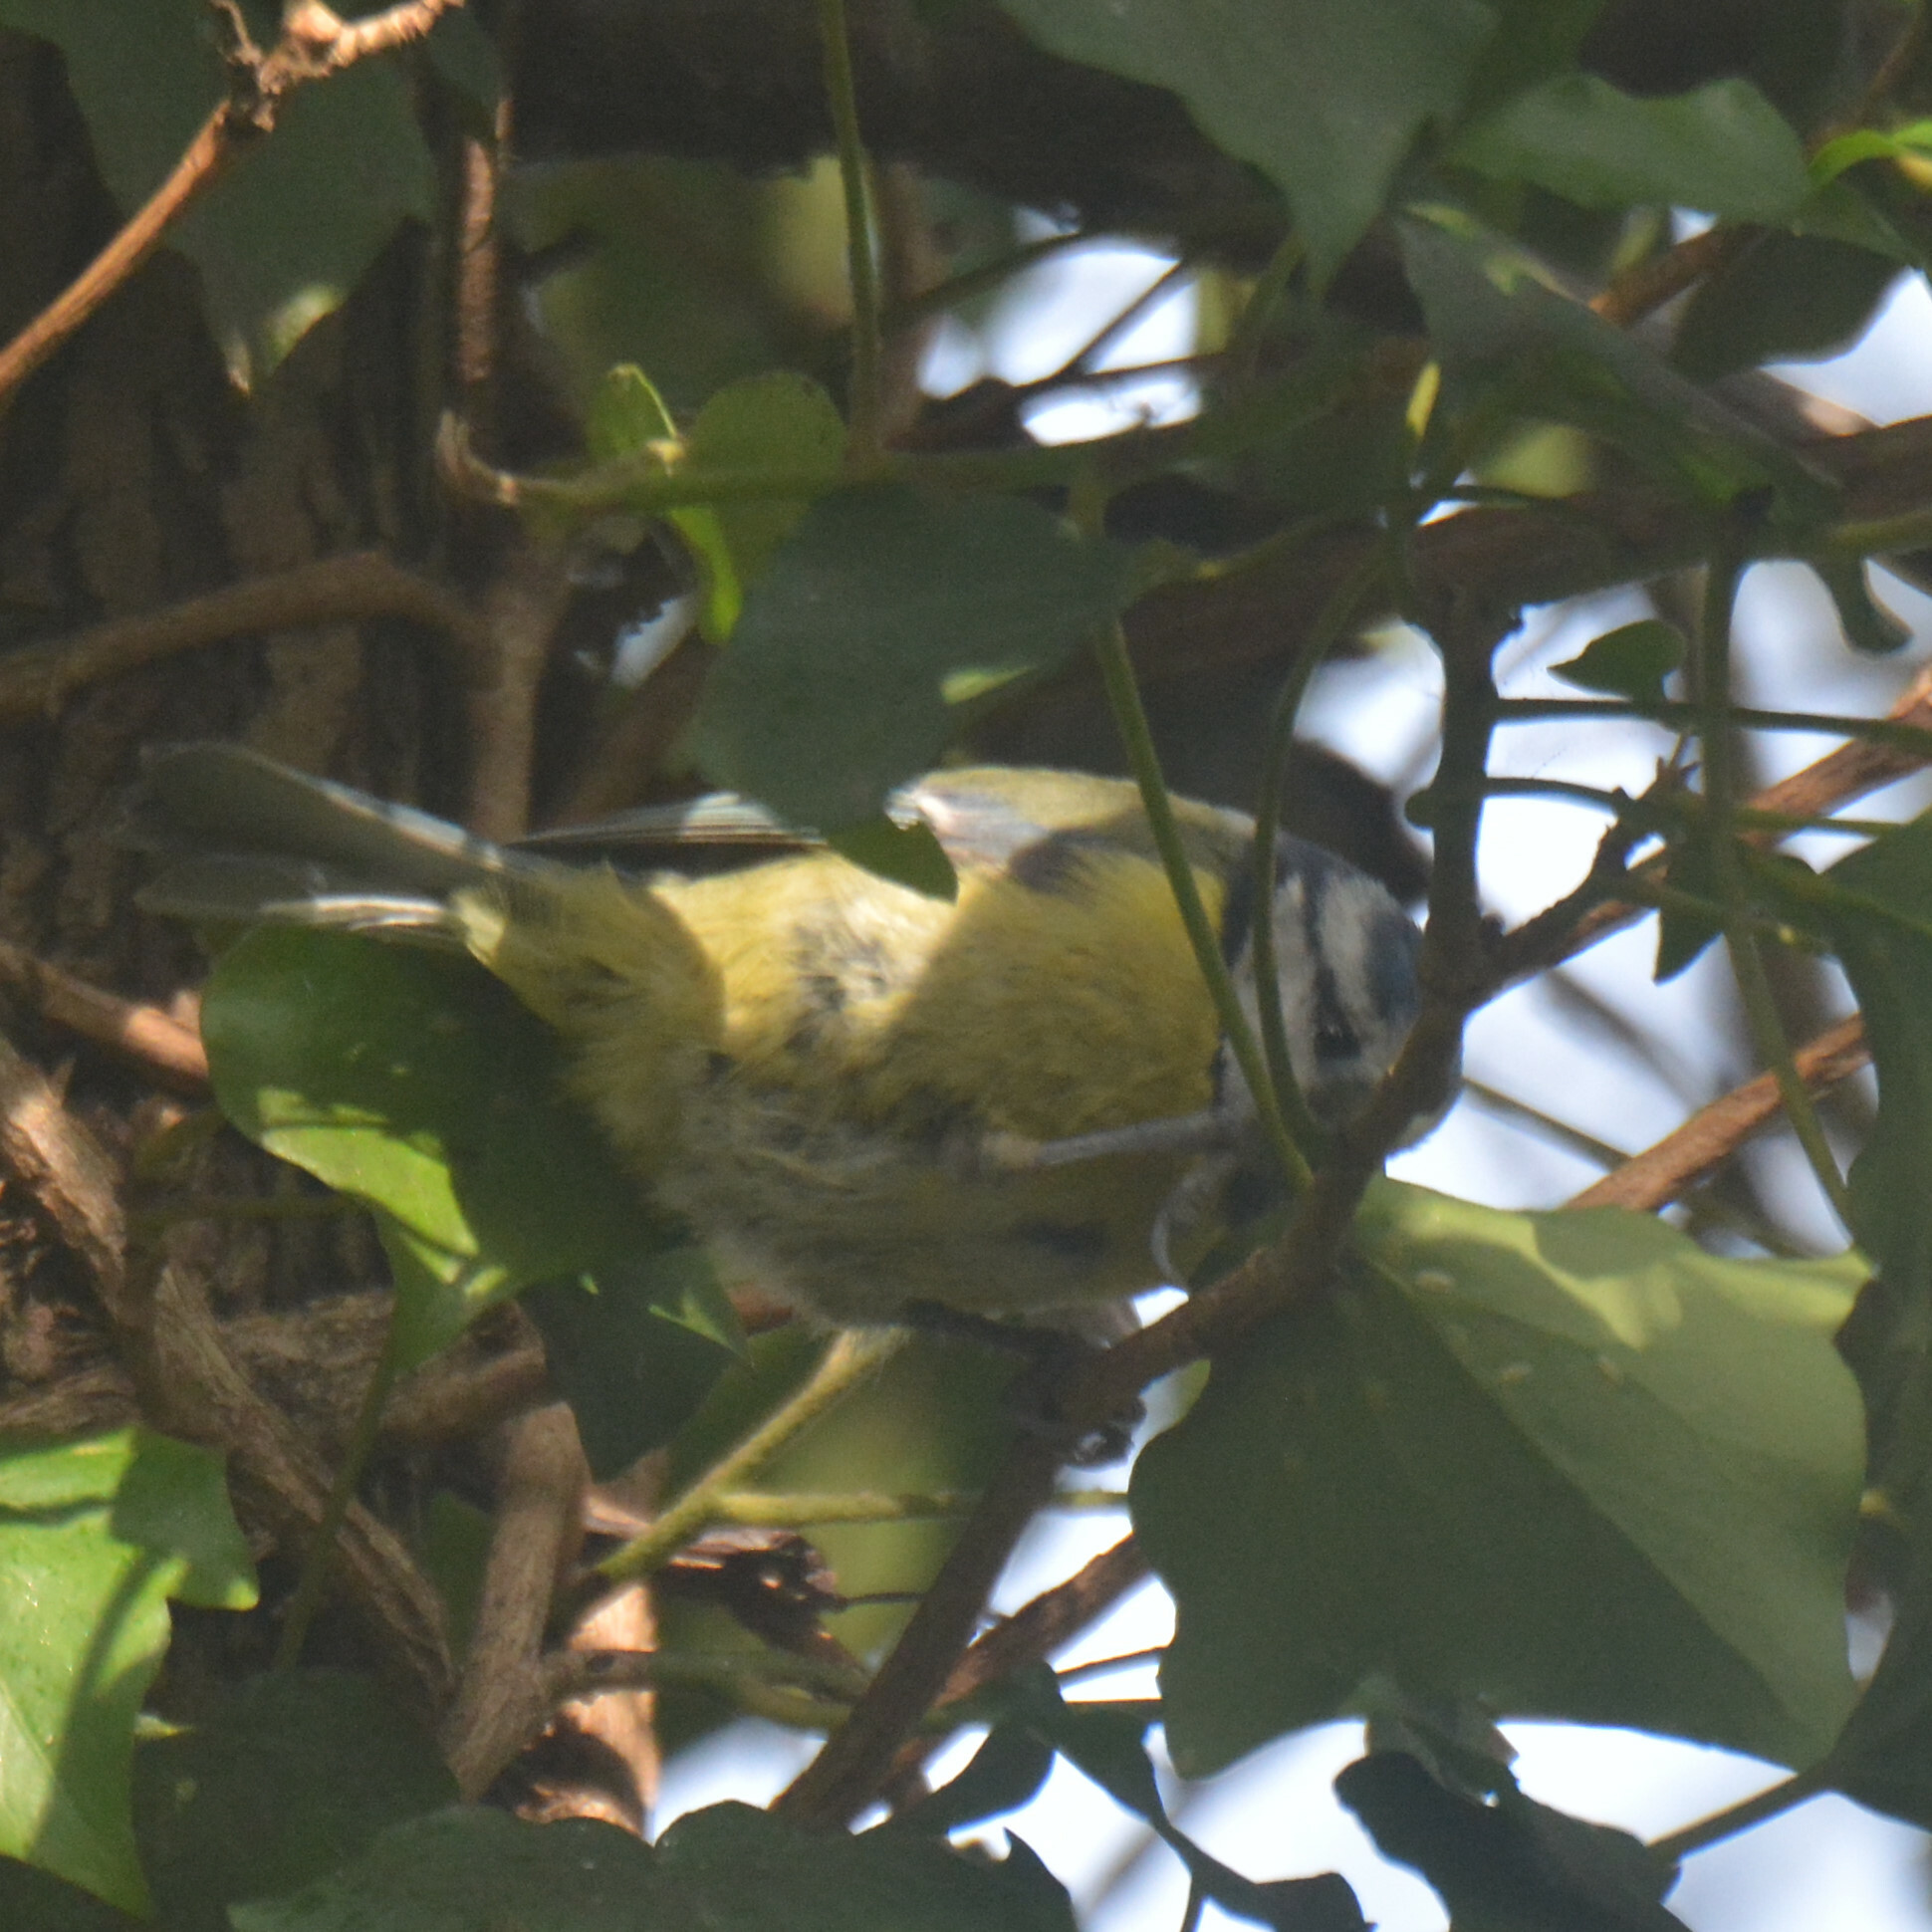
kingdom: Animalia
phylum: Chordata
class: Aves
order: Passeriformes
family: Paridae
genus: Cyanistes
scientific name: Cyanistes caeruleus
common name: Eurasian blue tit
